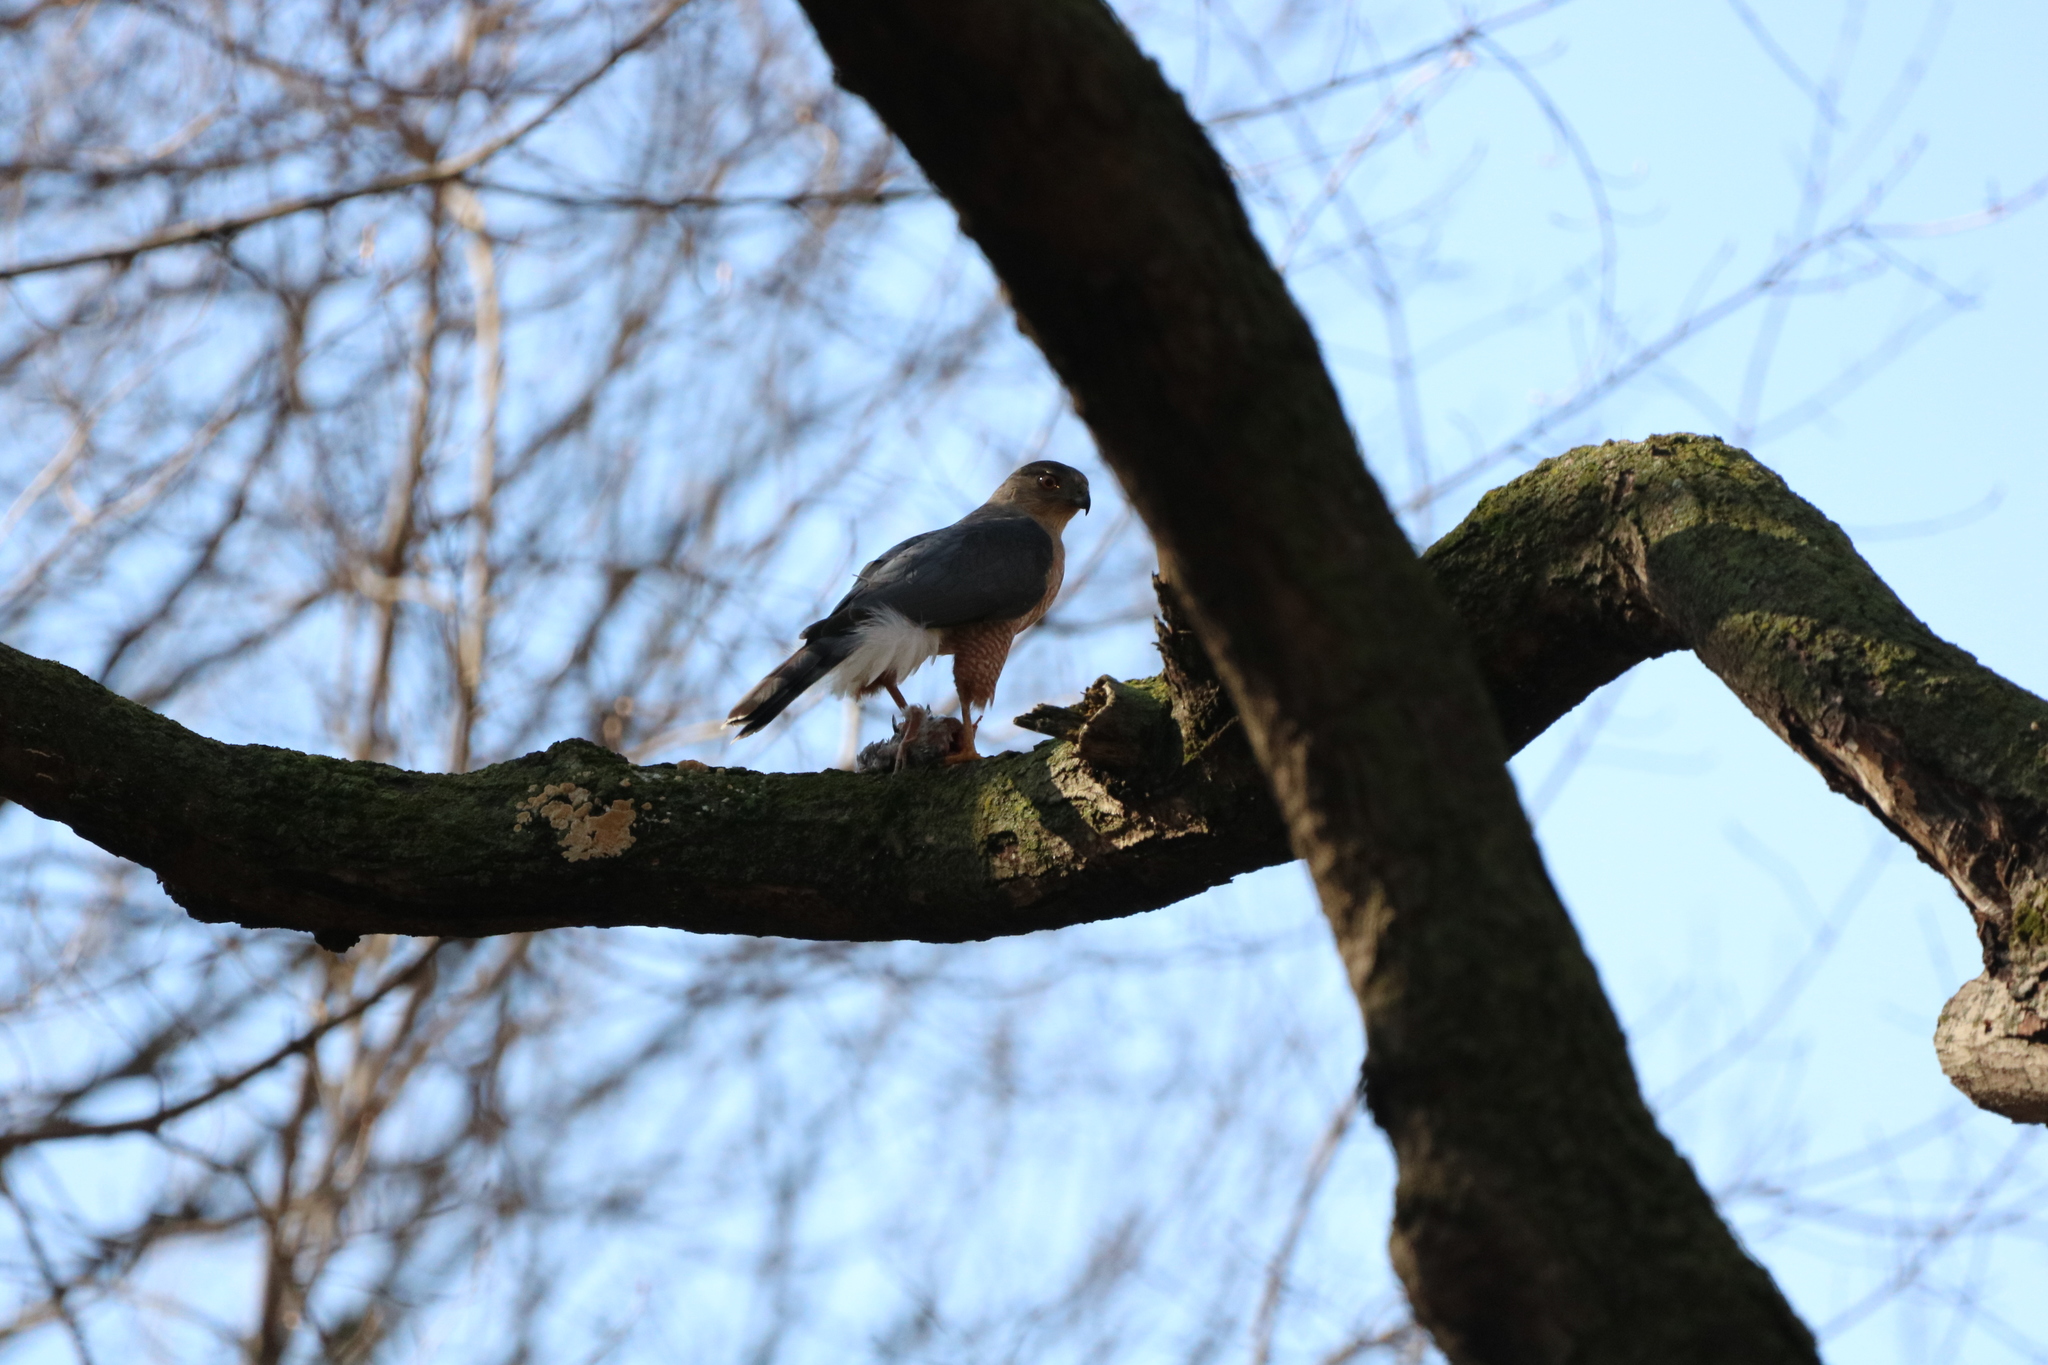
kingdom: Animalia
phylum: Chordata
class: Aves
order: Accipitriformes
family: Accipitridae
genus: Accipiter
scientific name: Accipiter cooperii
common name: Cooper's hawk
